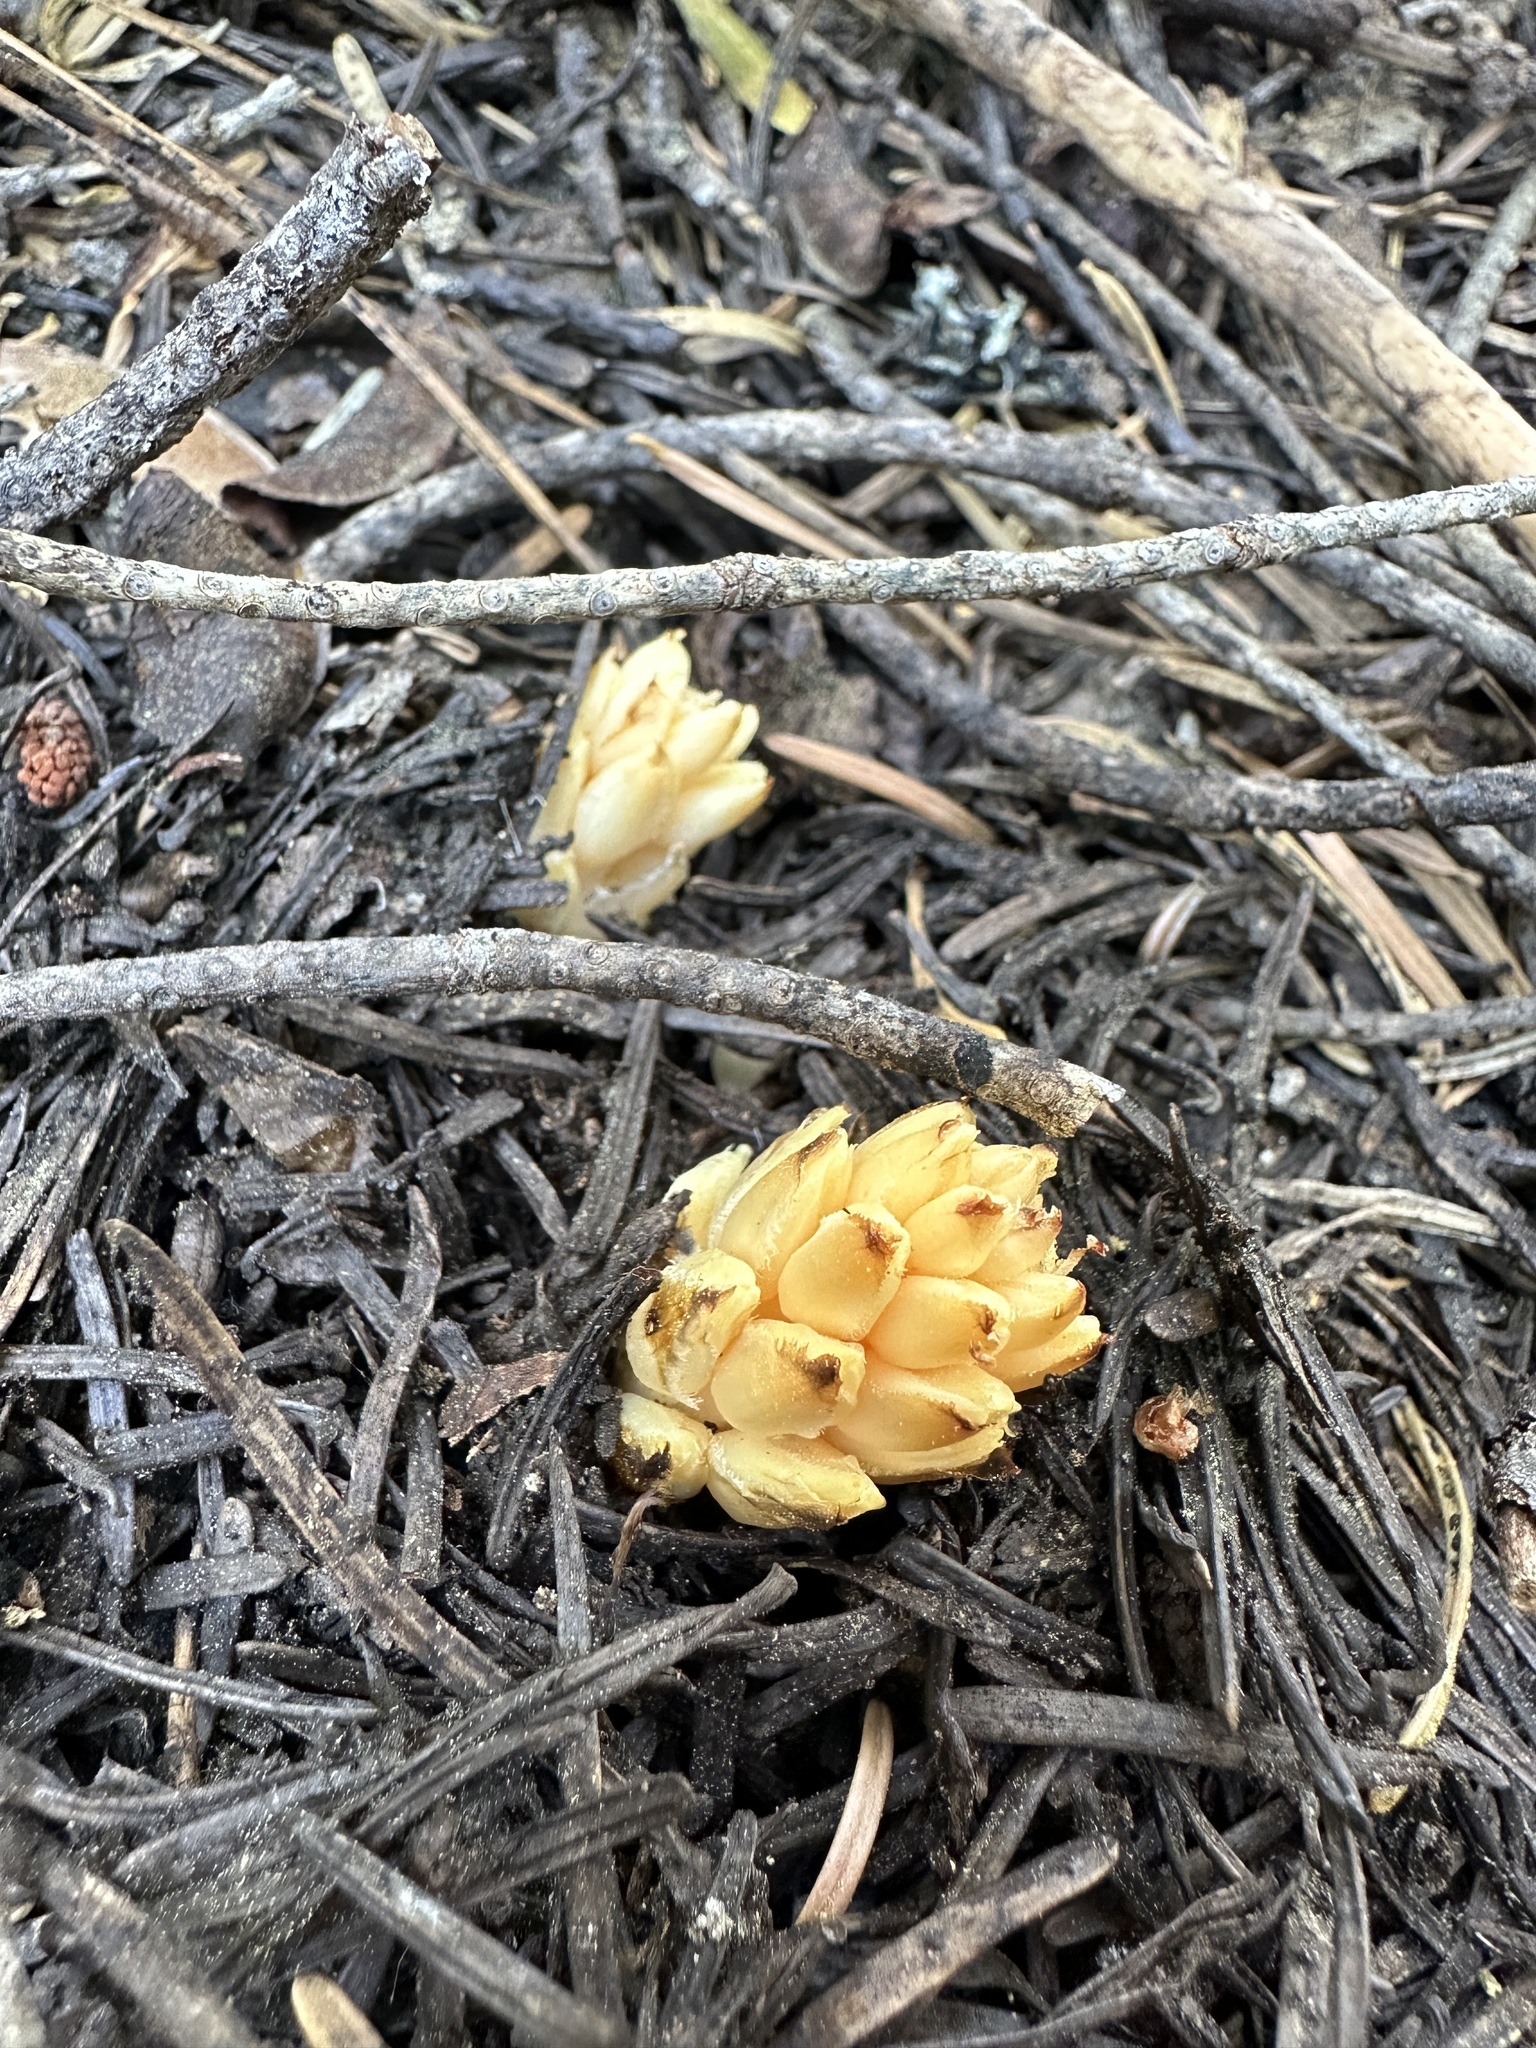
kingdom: Plantae
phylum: Tracheophyta
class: Magnoliopsida
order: Ericales
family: Ericaceae
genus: Pleuricospora
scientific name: Pleuricospora fimbriolata
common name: Fringed pinesap
